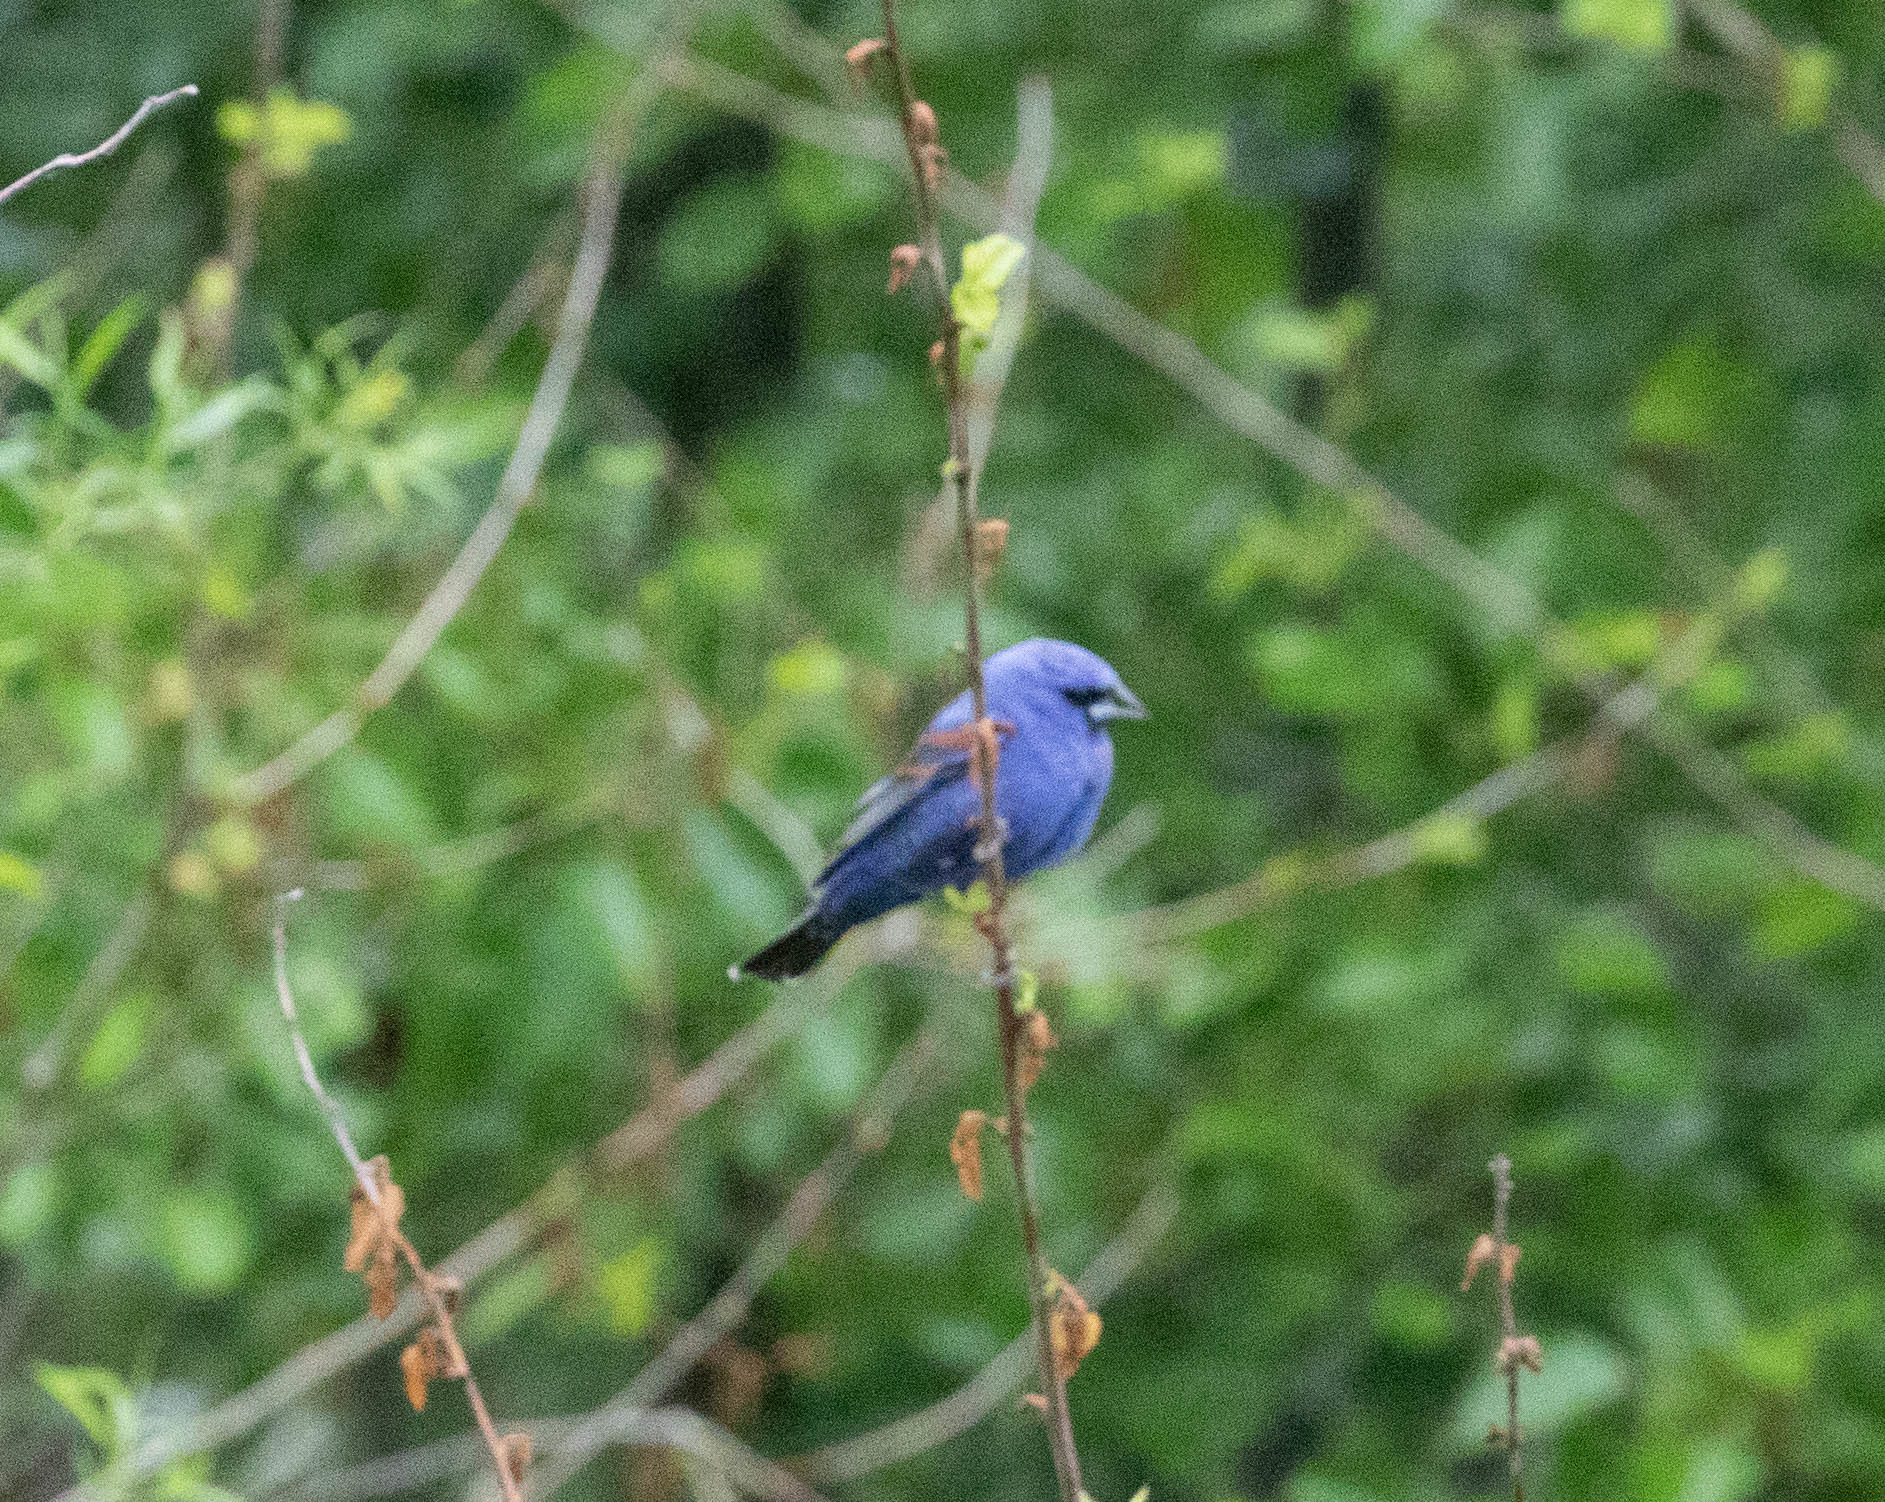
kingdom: Animalia
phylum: Chordata
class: Aves
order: Passeriformes
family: Cardinalidae
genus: Passerina
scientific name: Passerina caerulea
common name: Blue grosbeak
